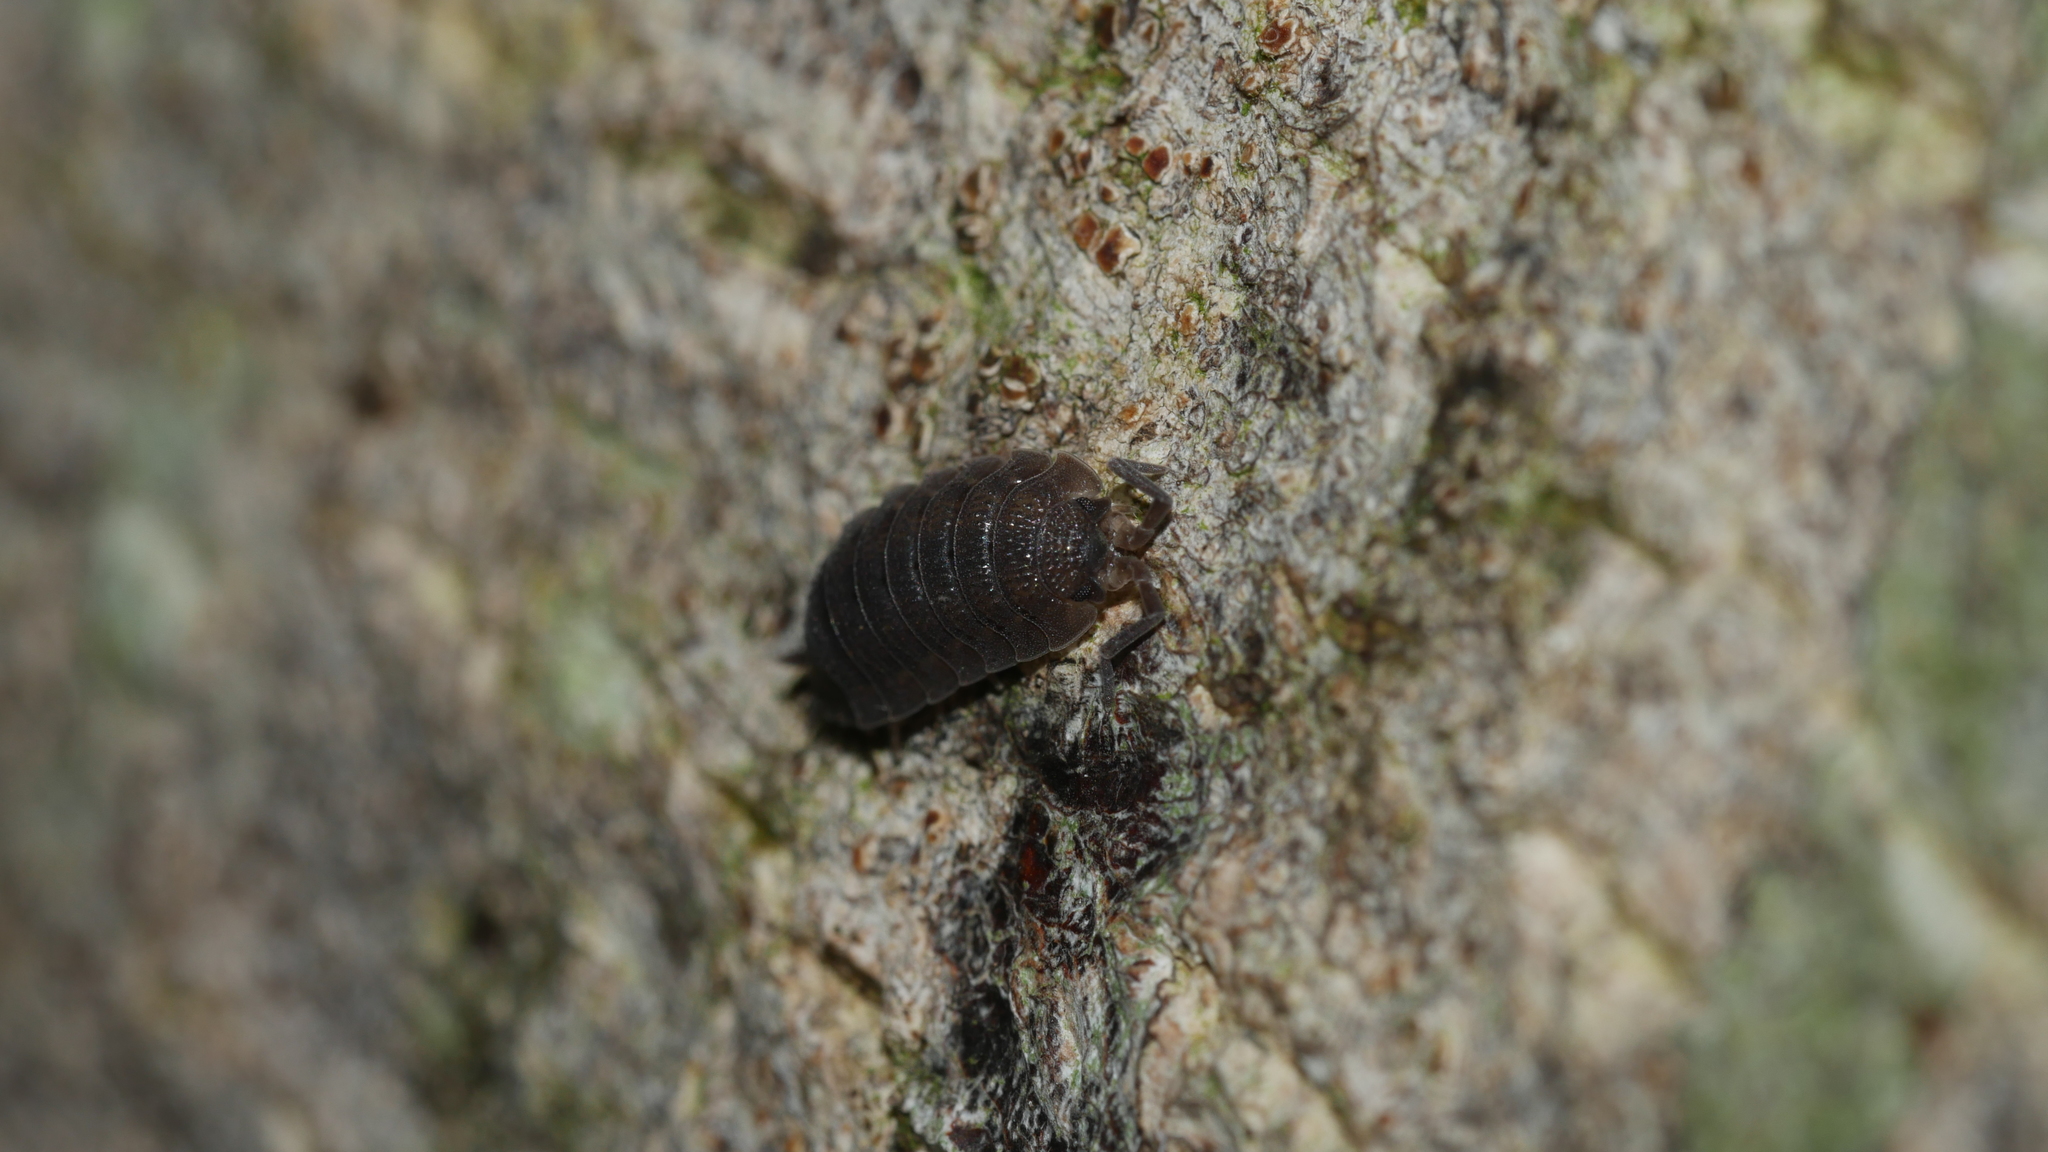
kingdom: Animalia
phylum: Arthropoda
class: Malacostraca
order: Isopoda
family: Porcellionidae
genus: Porcellio
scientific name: Porcellio scaber
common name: Common rough woodlouse
